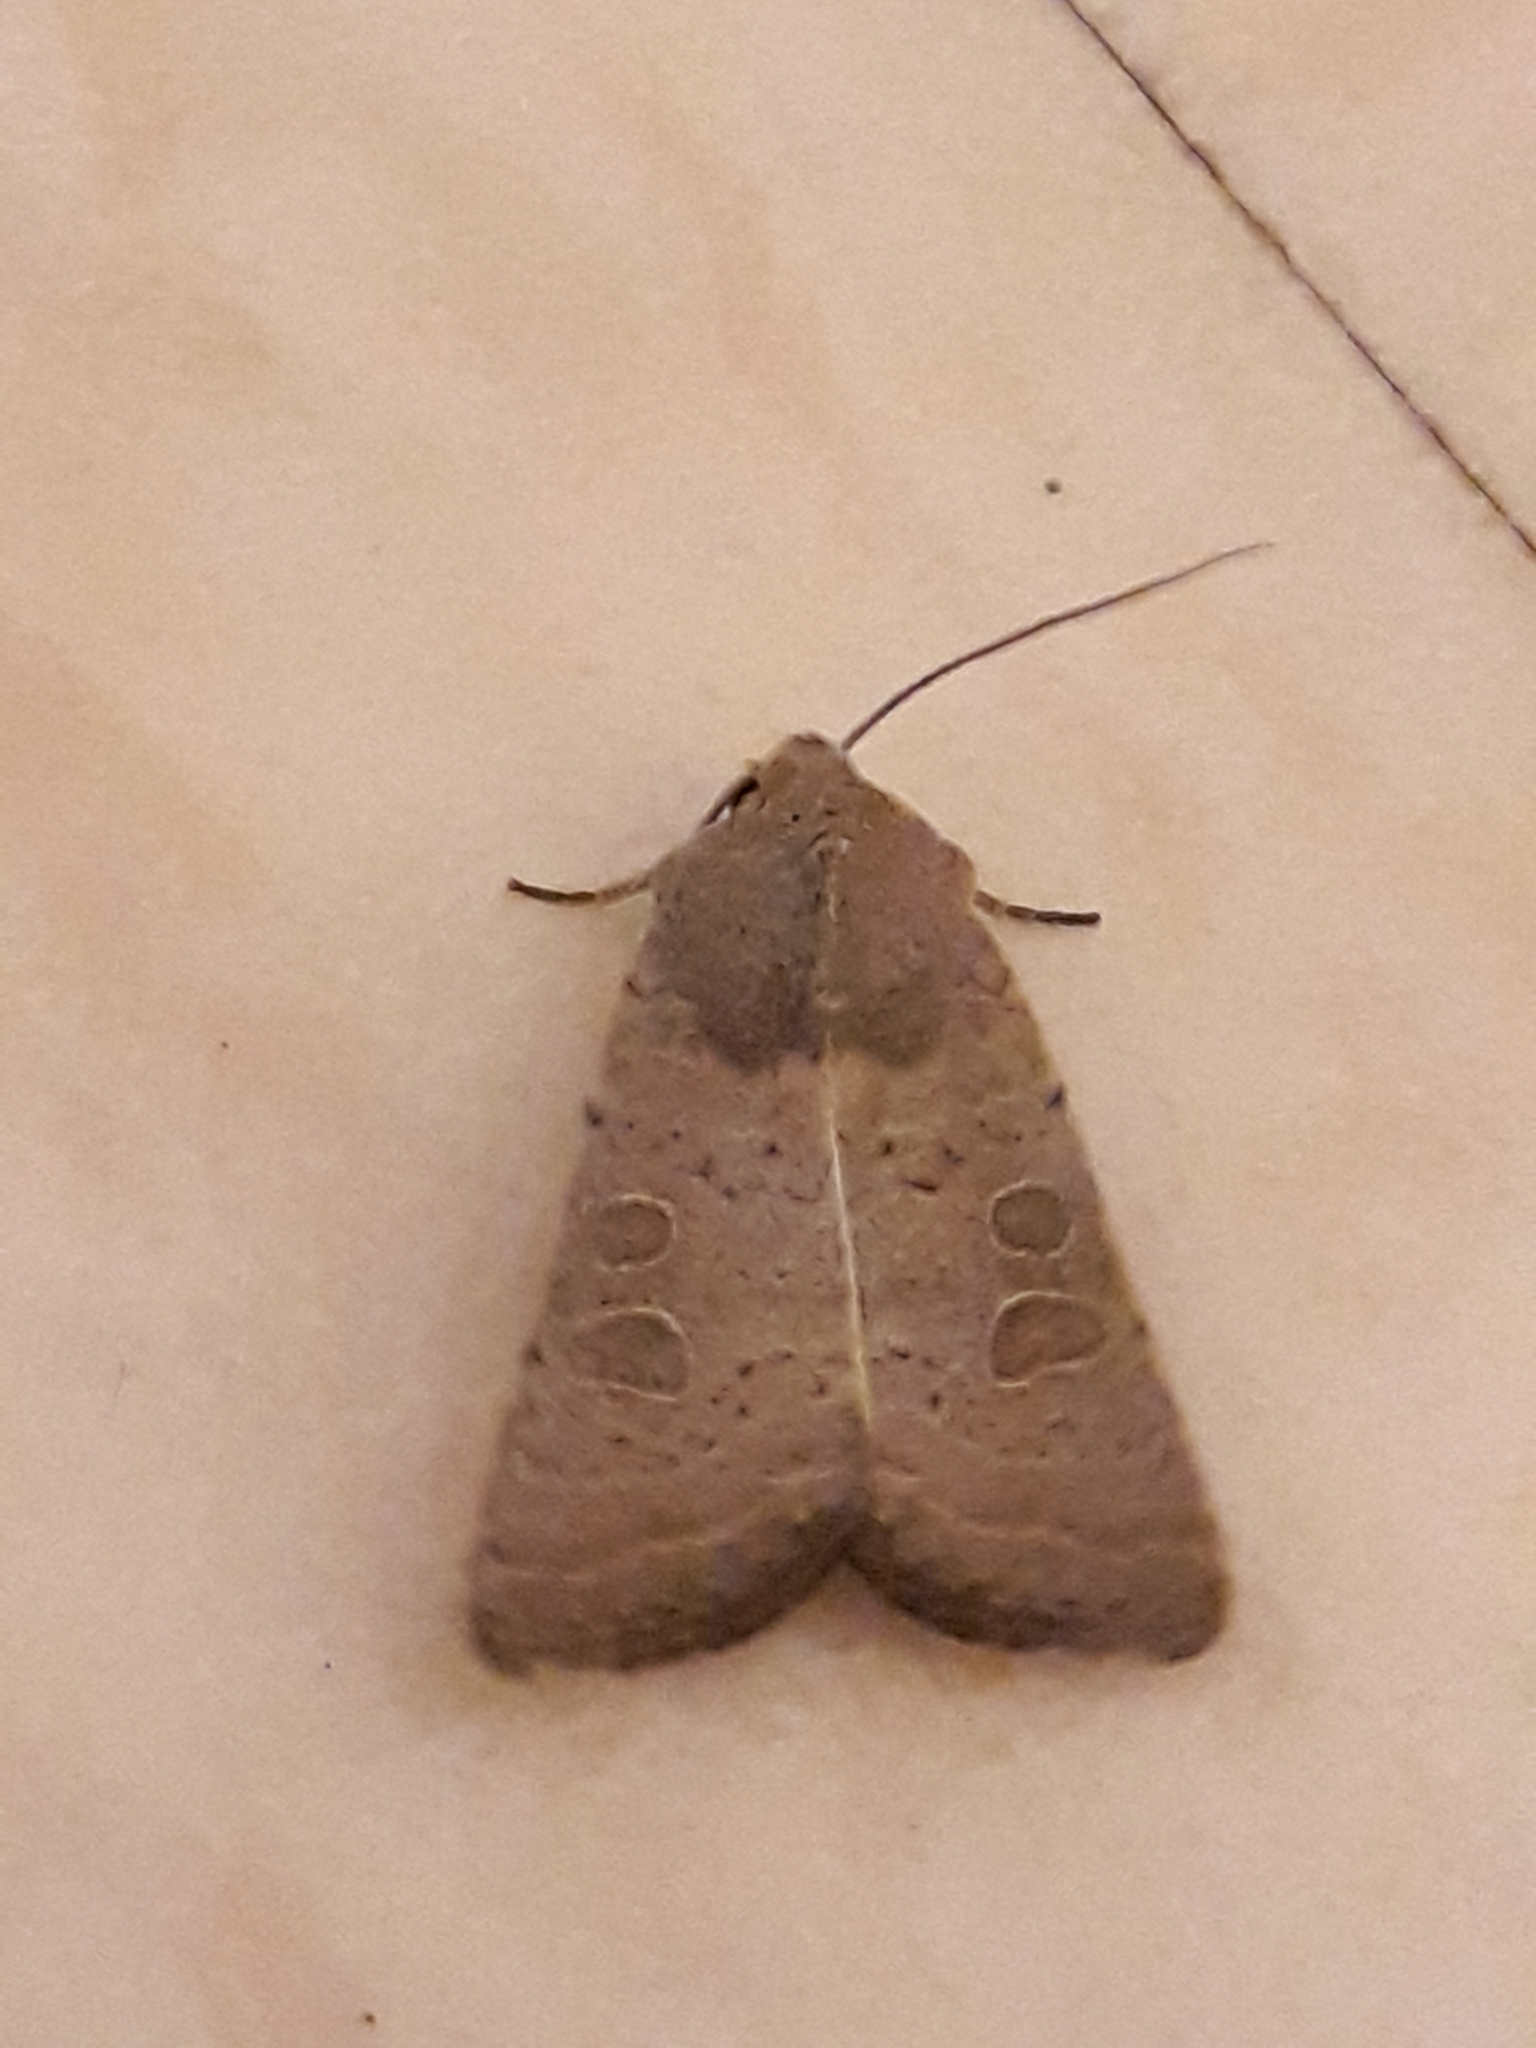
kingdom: Animalia
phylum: Arthropoda
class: Insecta
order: Lepidoptera
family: Noctuidae
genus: Hoplodrina
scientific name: Hoplodrina ambigua
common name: Vine's rustic
